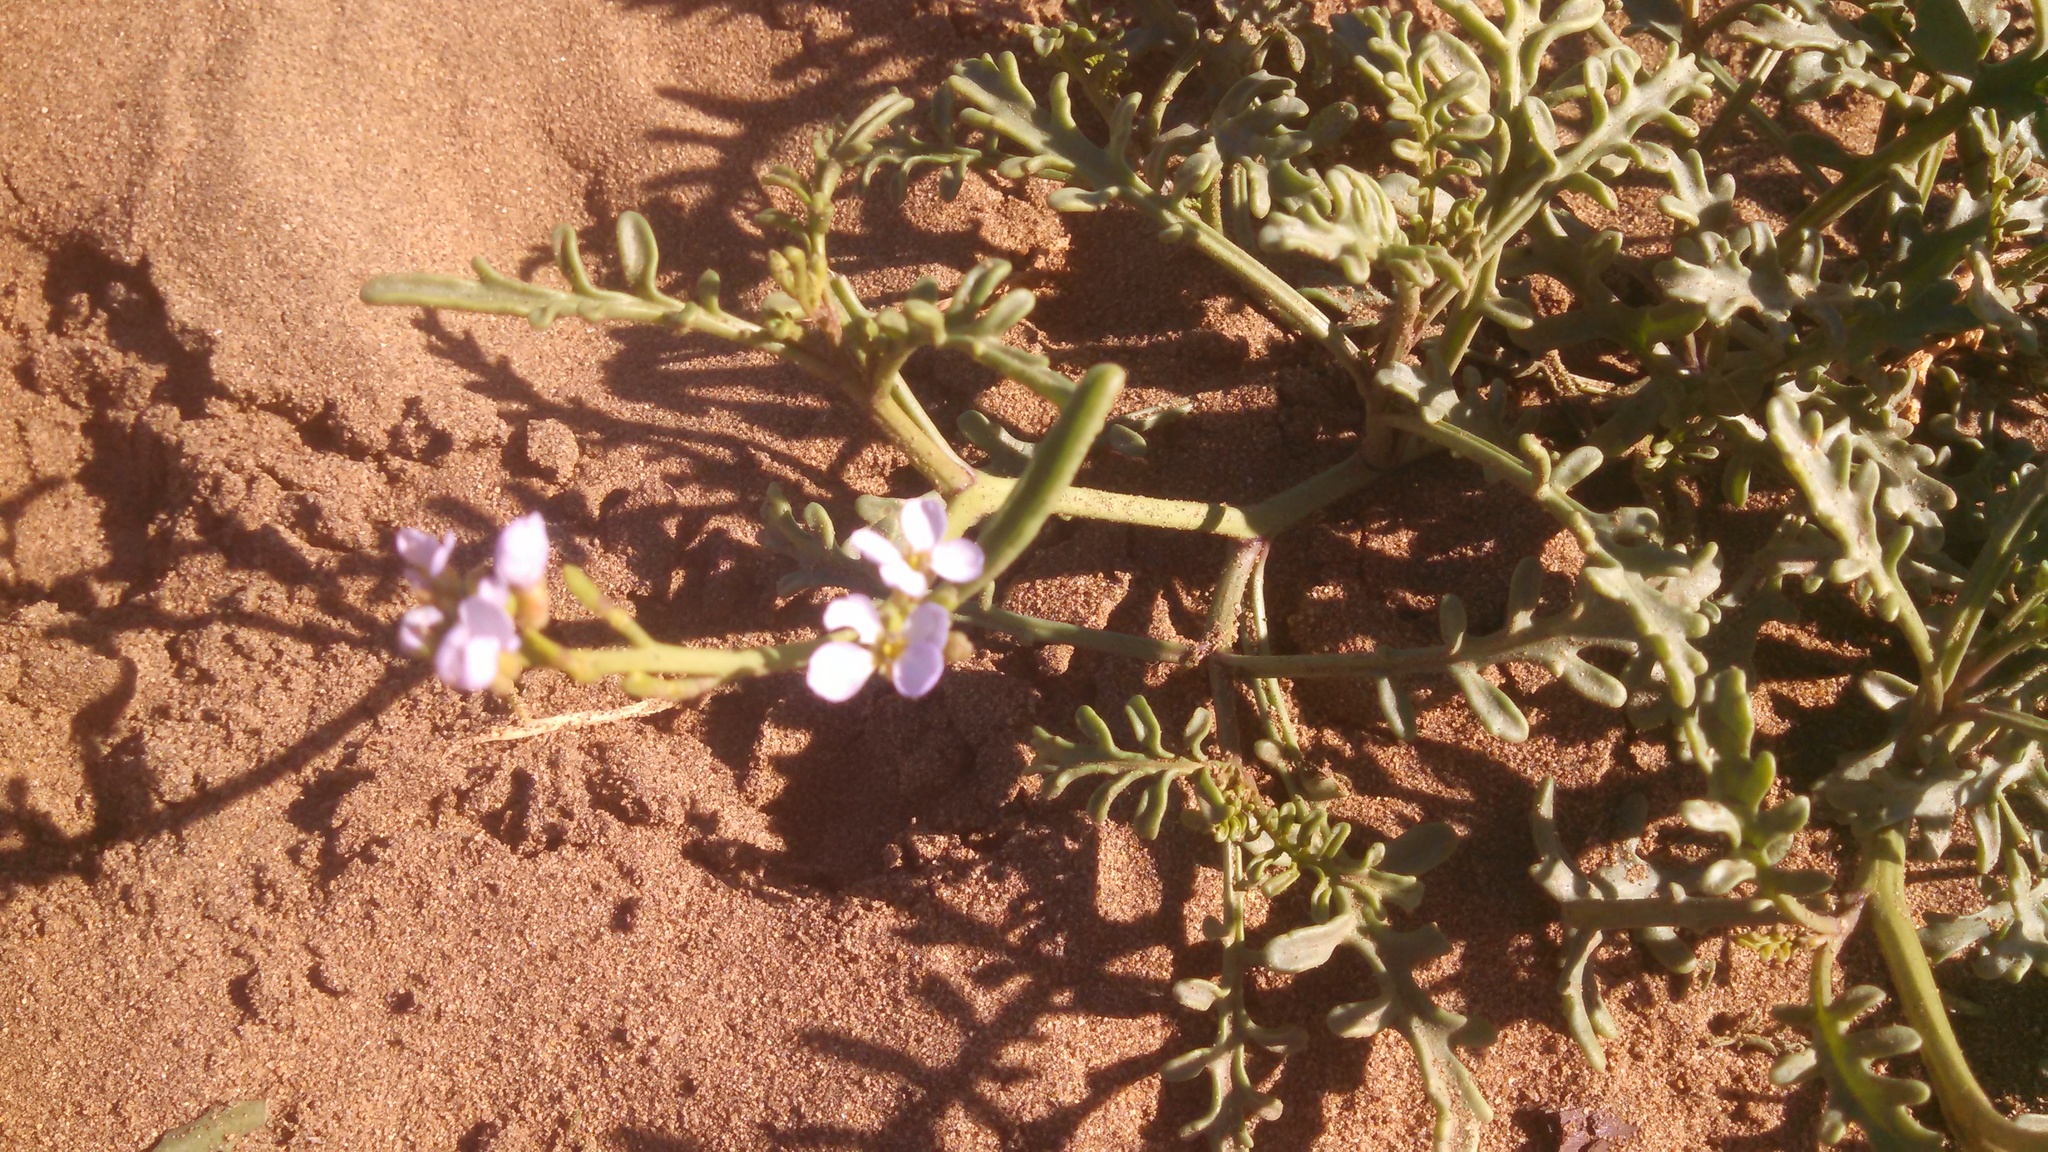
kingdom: Plantae
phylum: Tracheophyta
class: Magnoliopsida
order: Brassicales
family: Brassicaceae
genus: Cakile
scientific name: Cakile maritima
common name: Sea rocket
